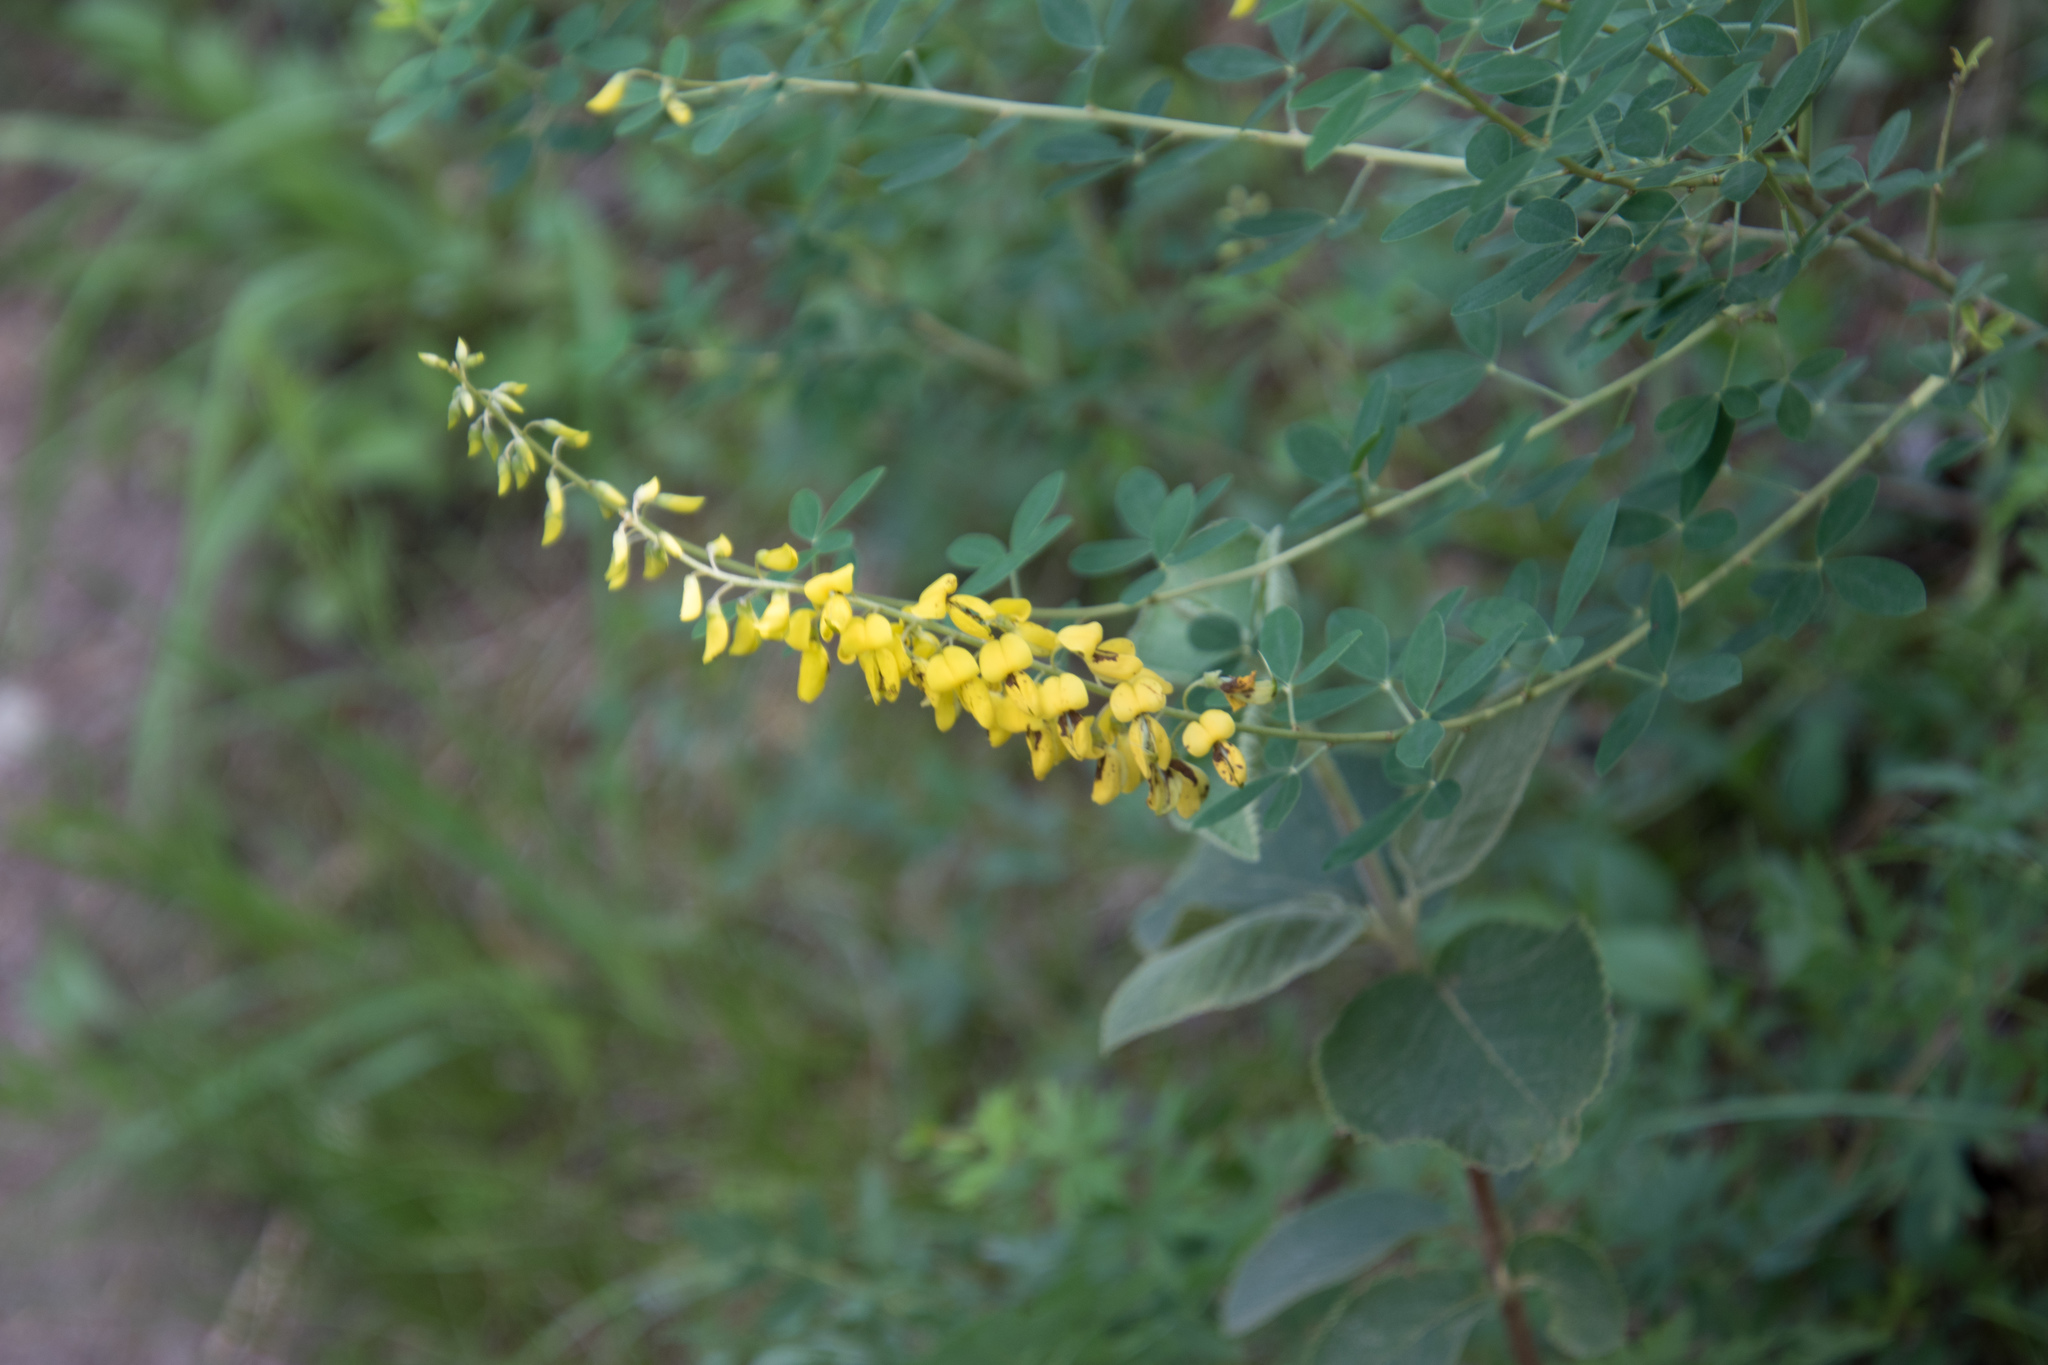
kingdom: Plantae
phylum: Tracheophyta
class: Magnoliopsida
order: Fabales
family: Fabaceae
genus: Melilotus
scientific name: Melilotus officinalis
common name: Sweetclover
